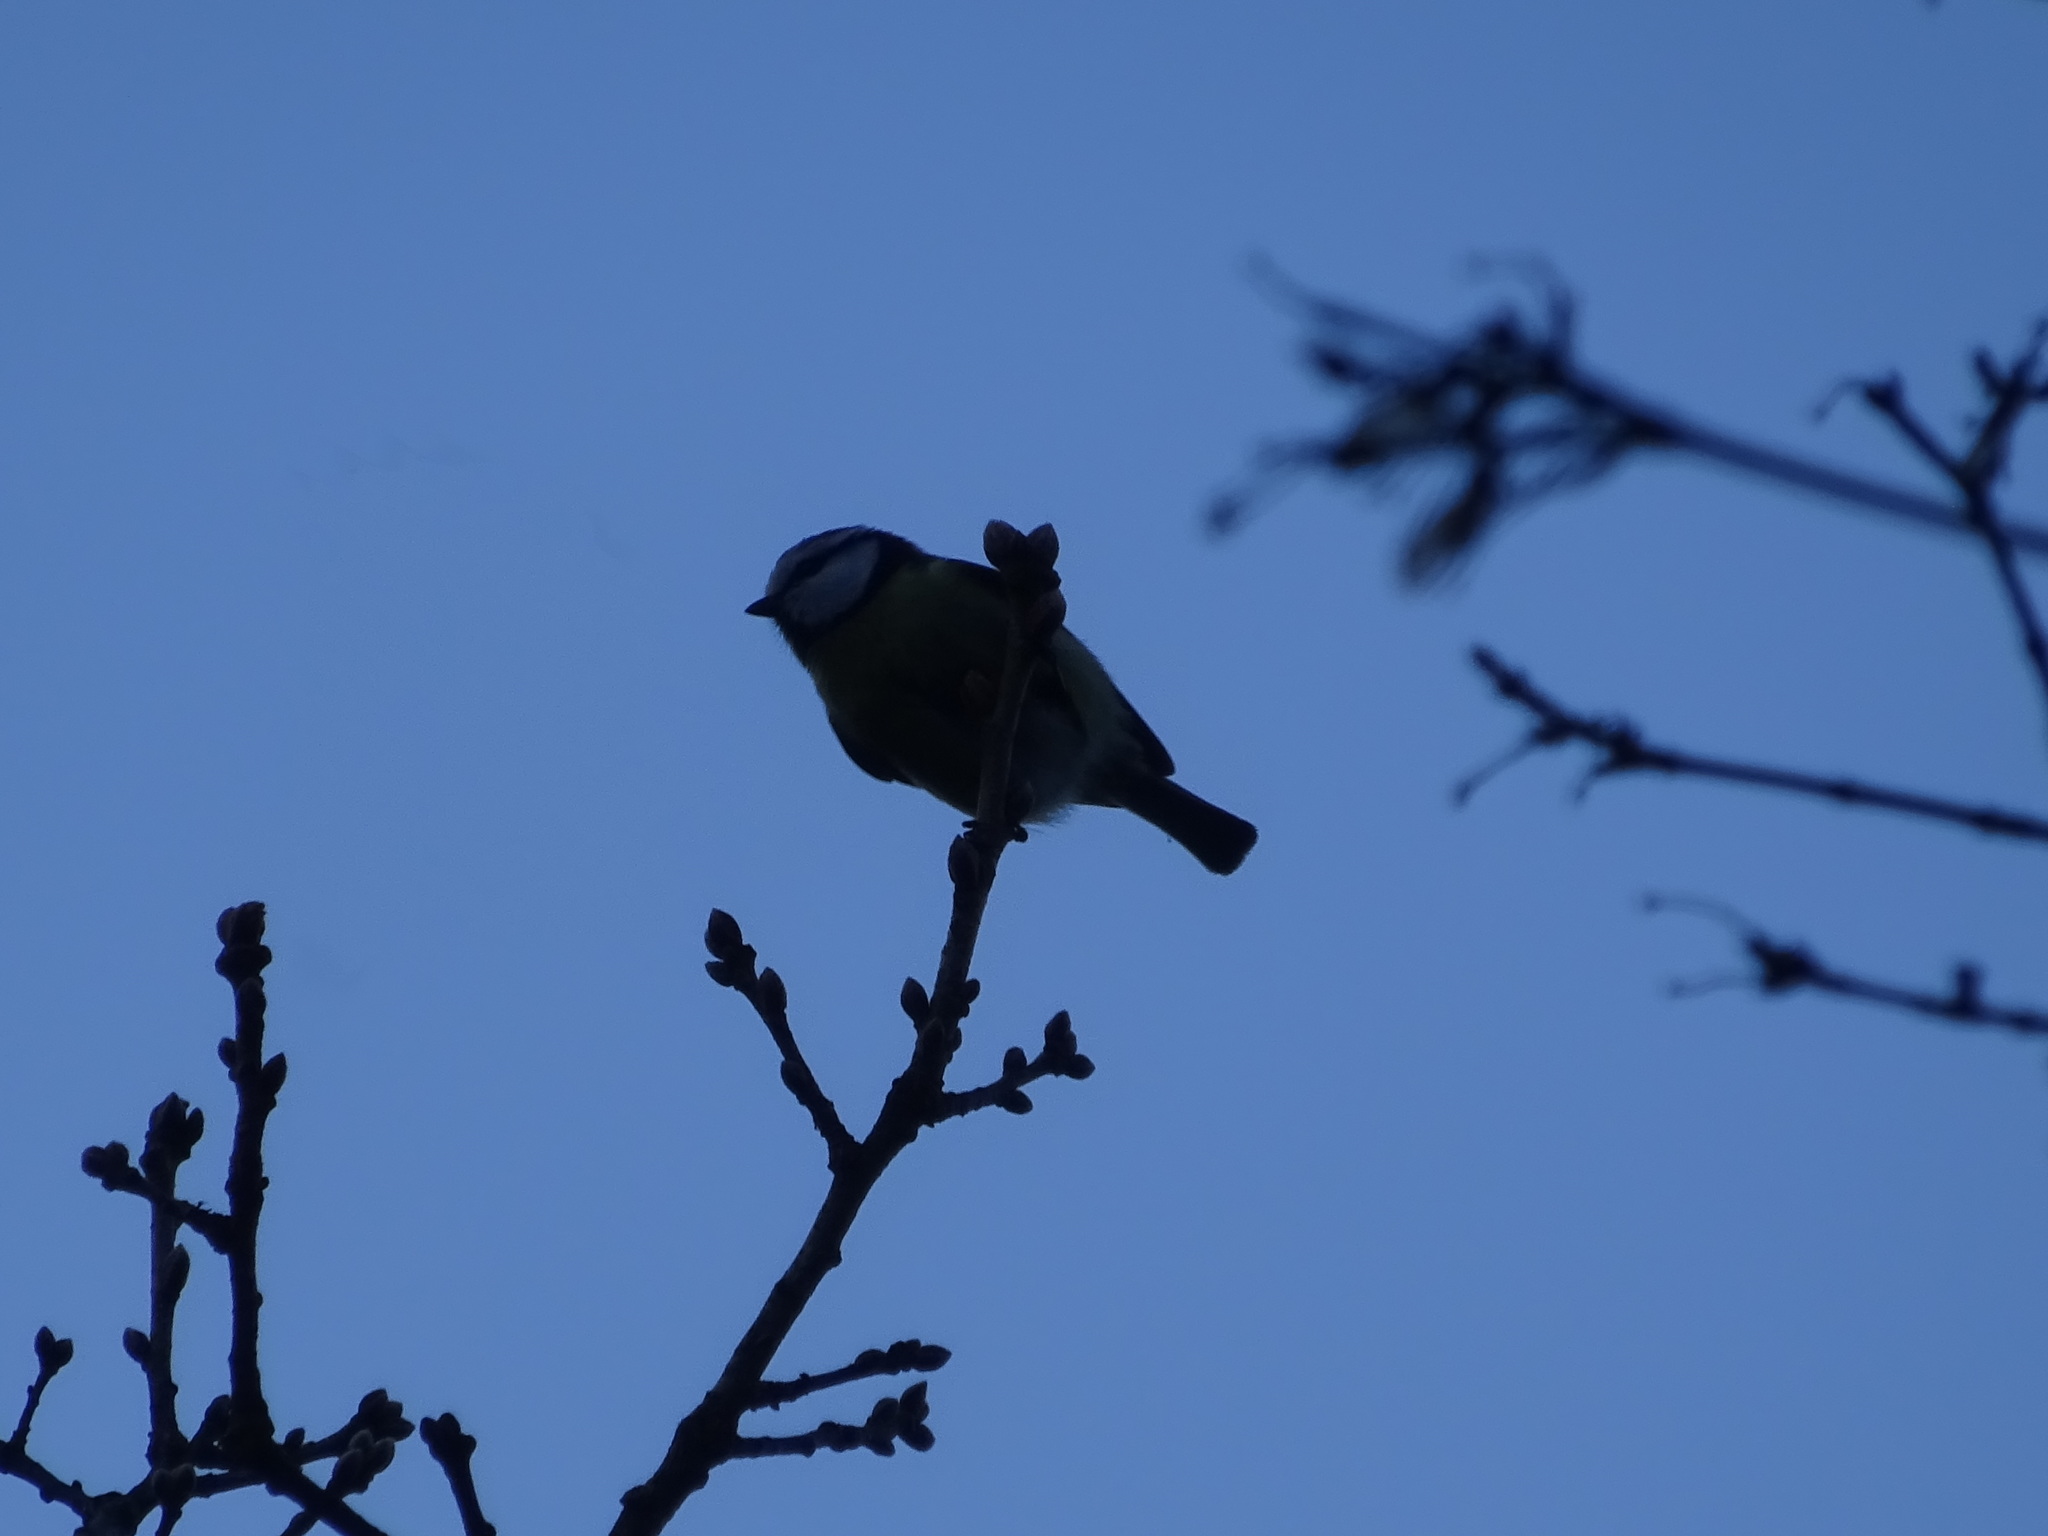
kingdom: Animalia
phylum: Chordata
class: Aves
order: Passeriformes
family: Paridae
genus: Cyanistes
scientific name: Cyanistes caeruleus
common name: Eurasian blue tit
